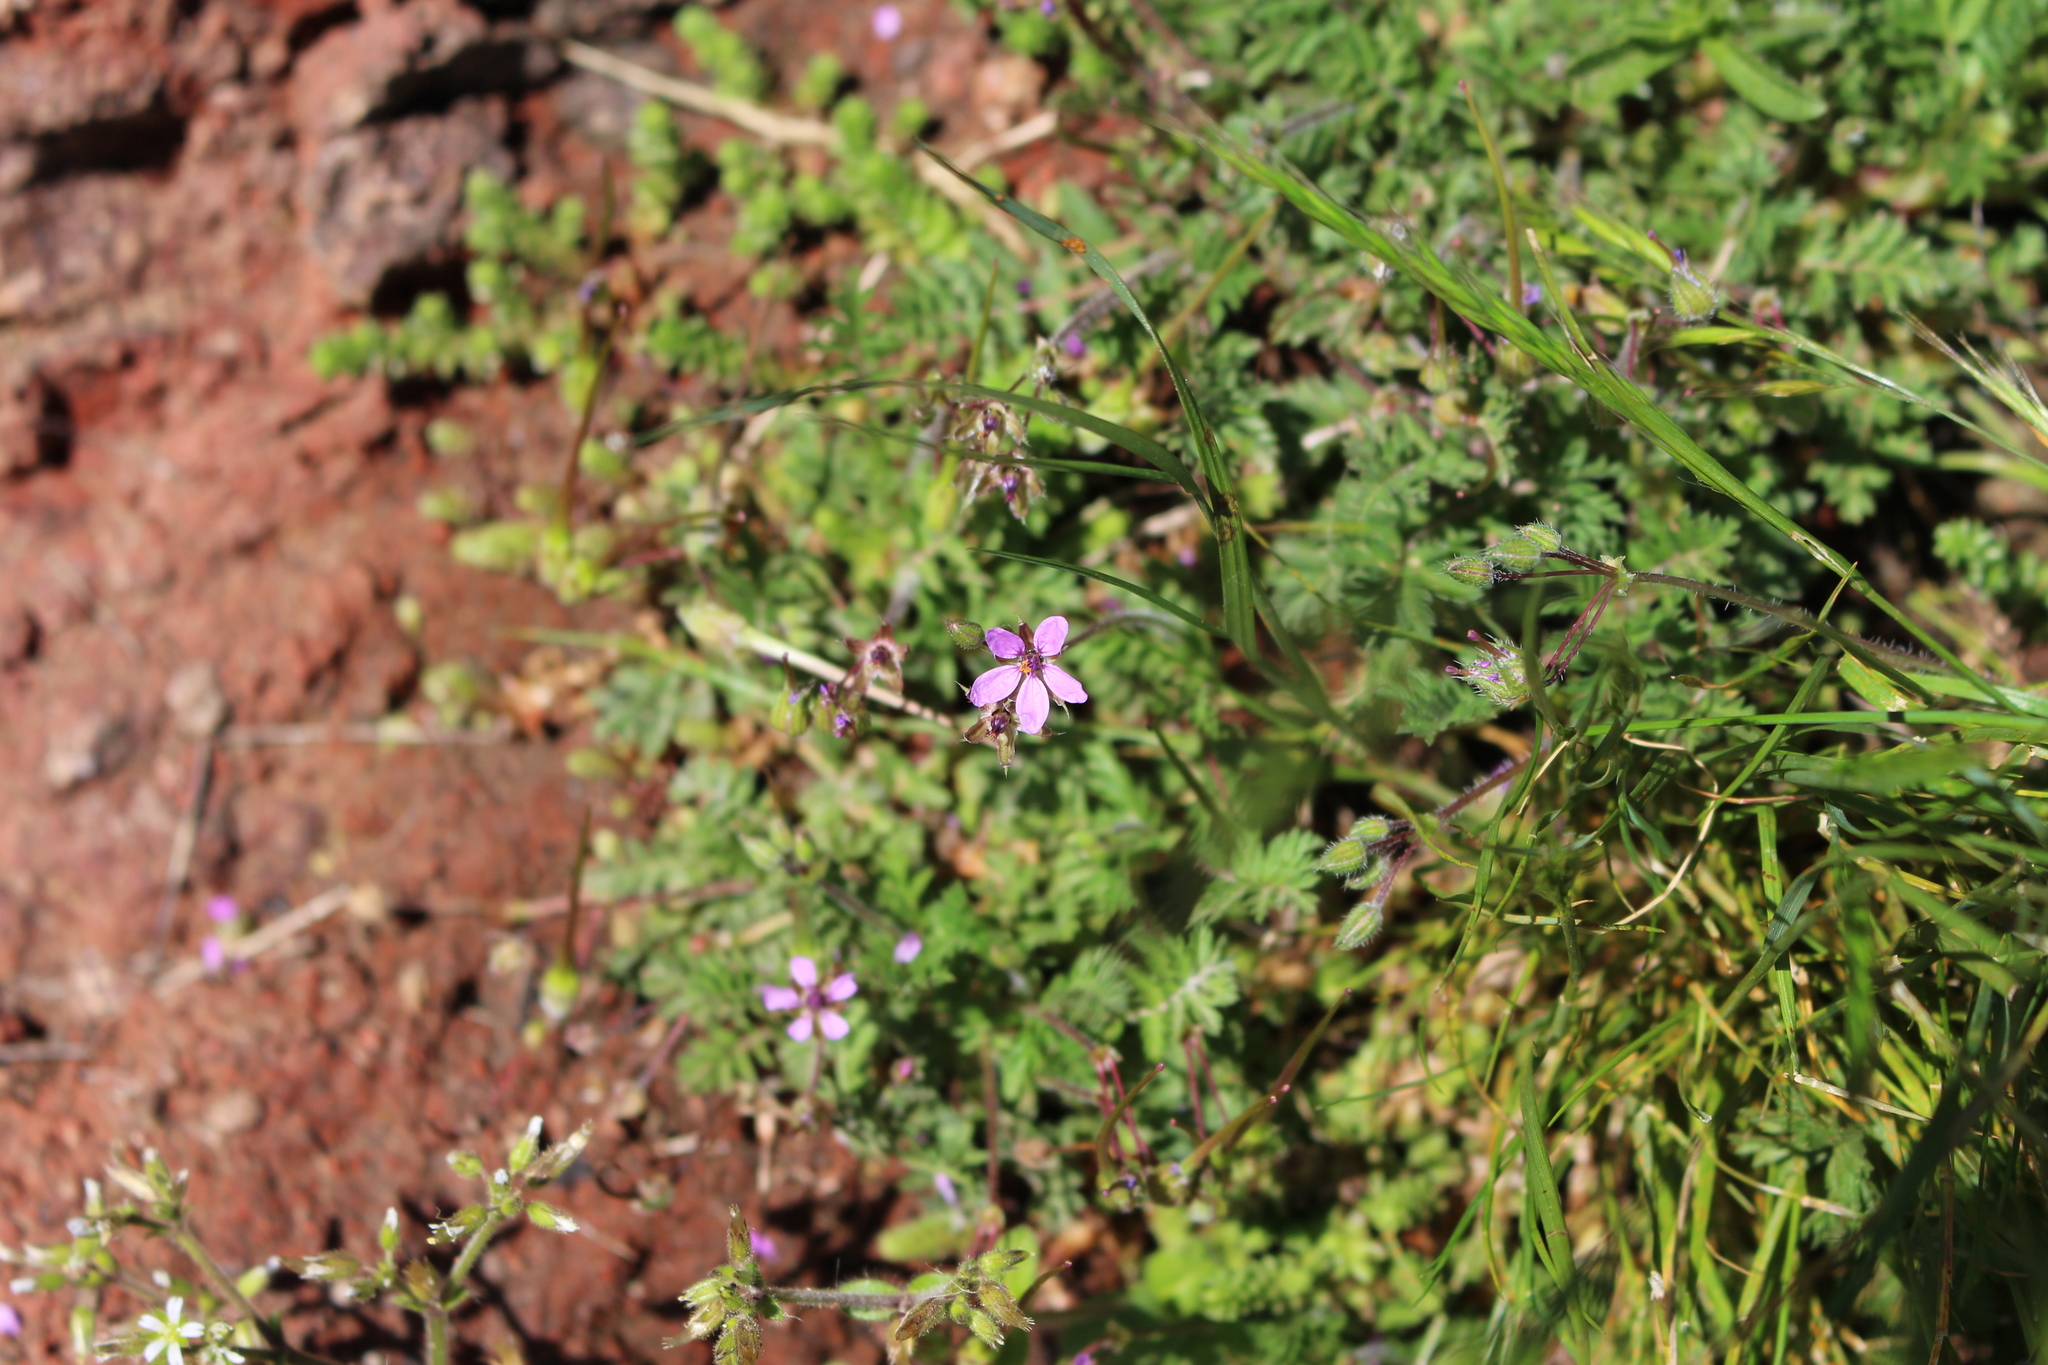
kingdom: Plantae
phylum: Tracheophyta
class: Magnoliopsida
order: Geraniales
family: Geraniaceae
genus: Erodium
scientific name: Erodium cicutarium
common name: Common stork's-bill
